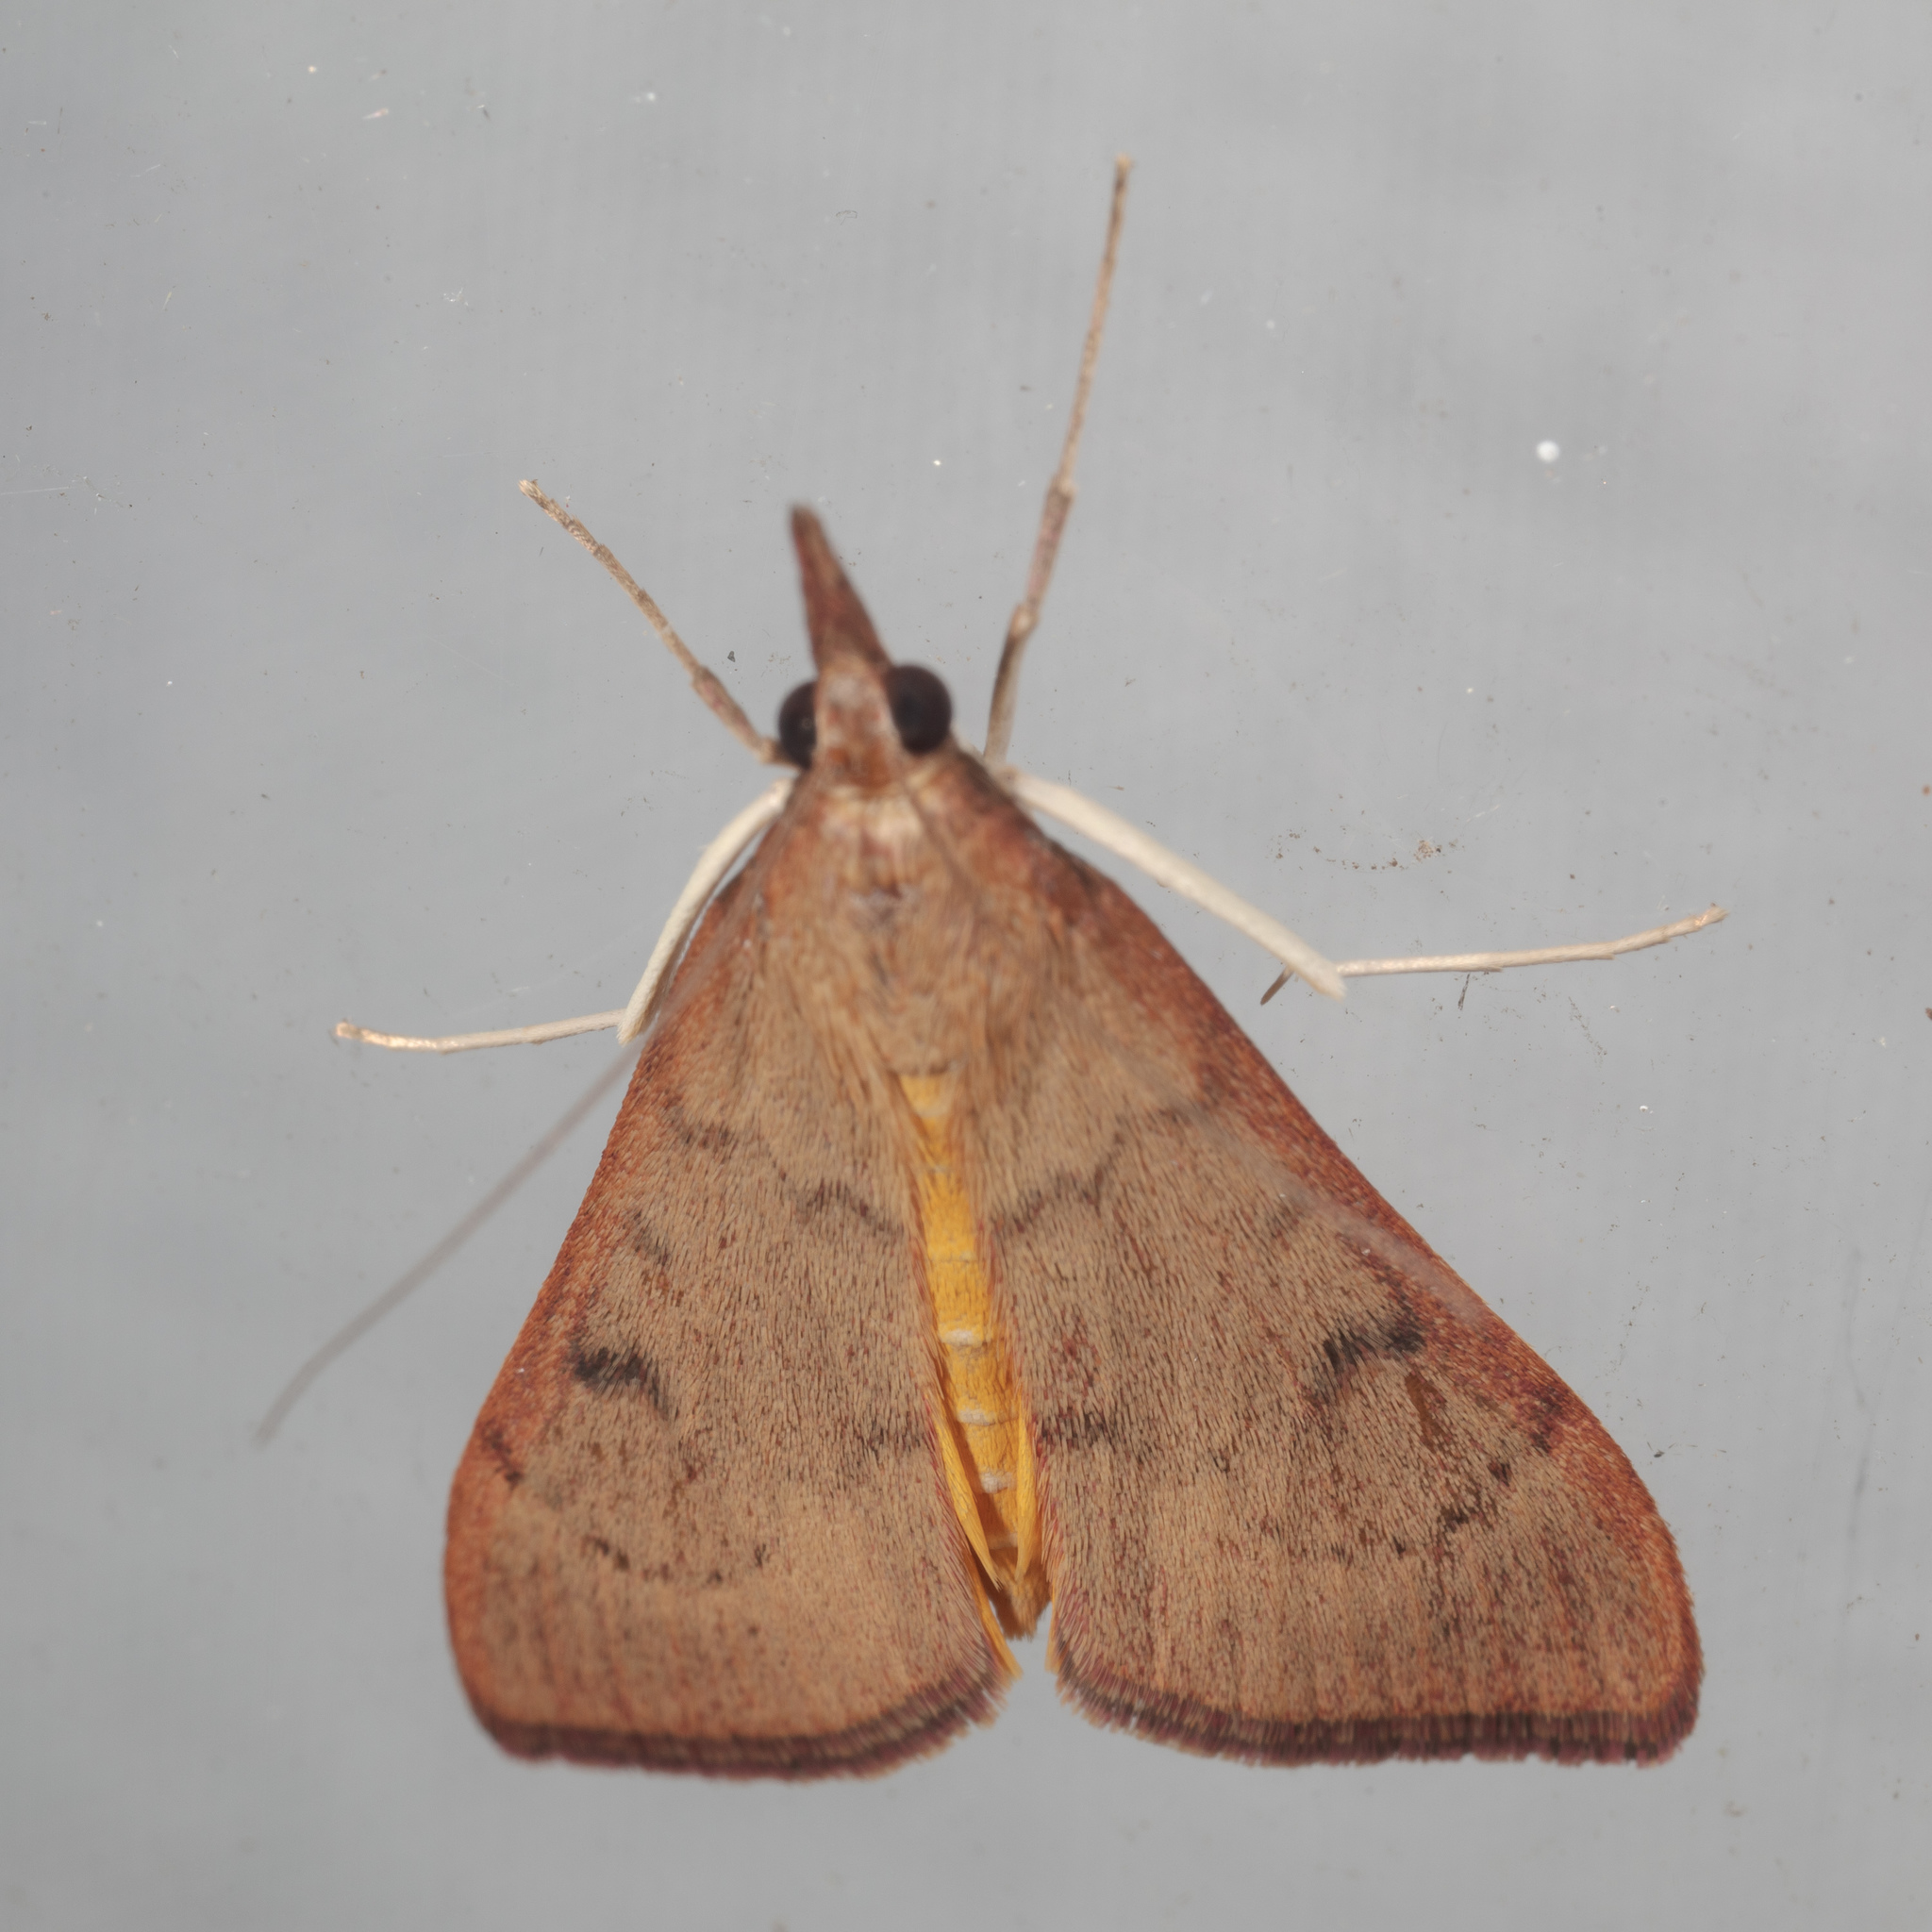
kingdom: Animalia
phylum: Arthropoda
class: Insecta
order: Lepidoptera
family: Crambidae
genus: Uresiphita
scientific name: Uresiphita reversalis
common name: Genista broom moth
